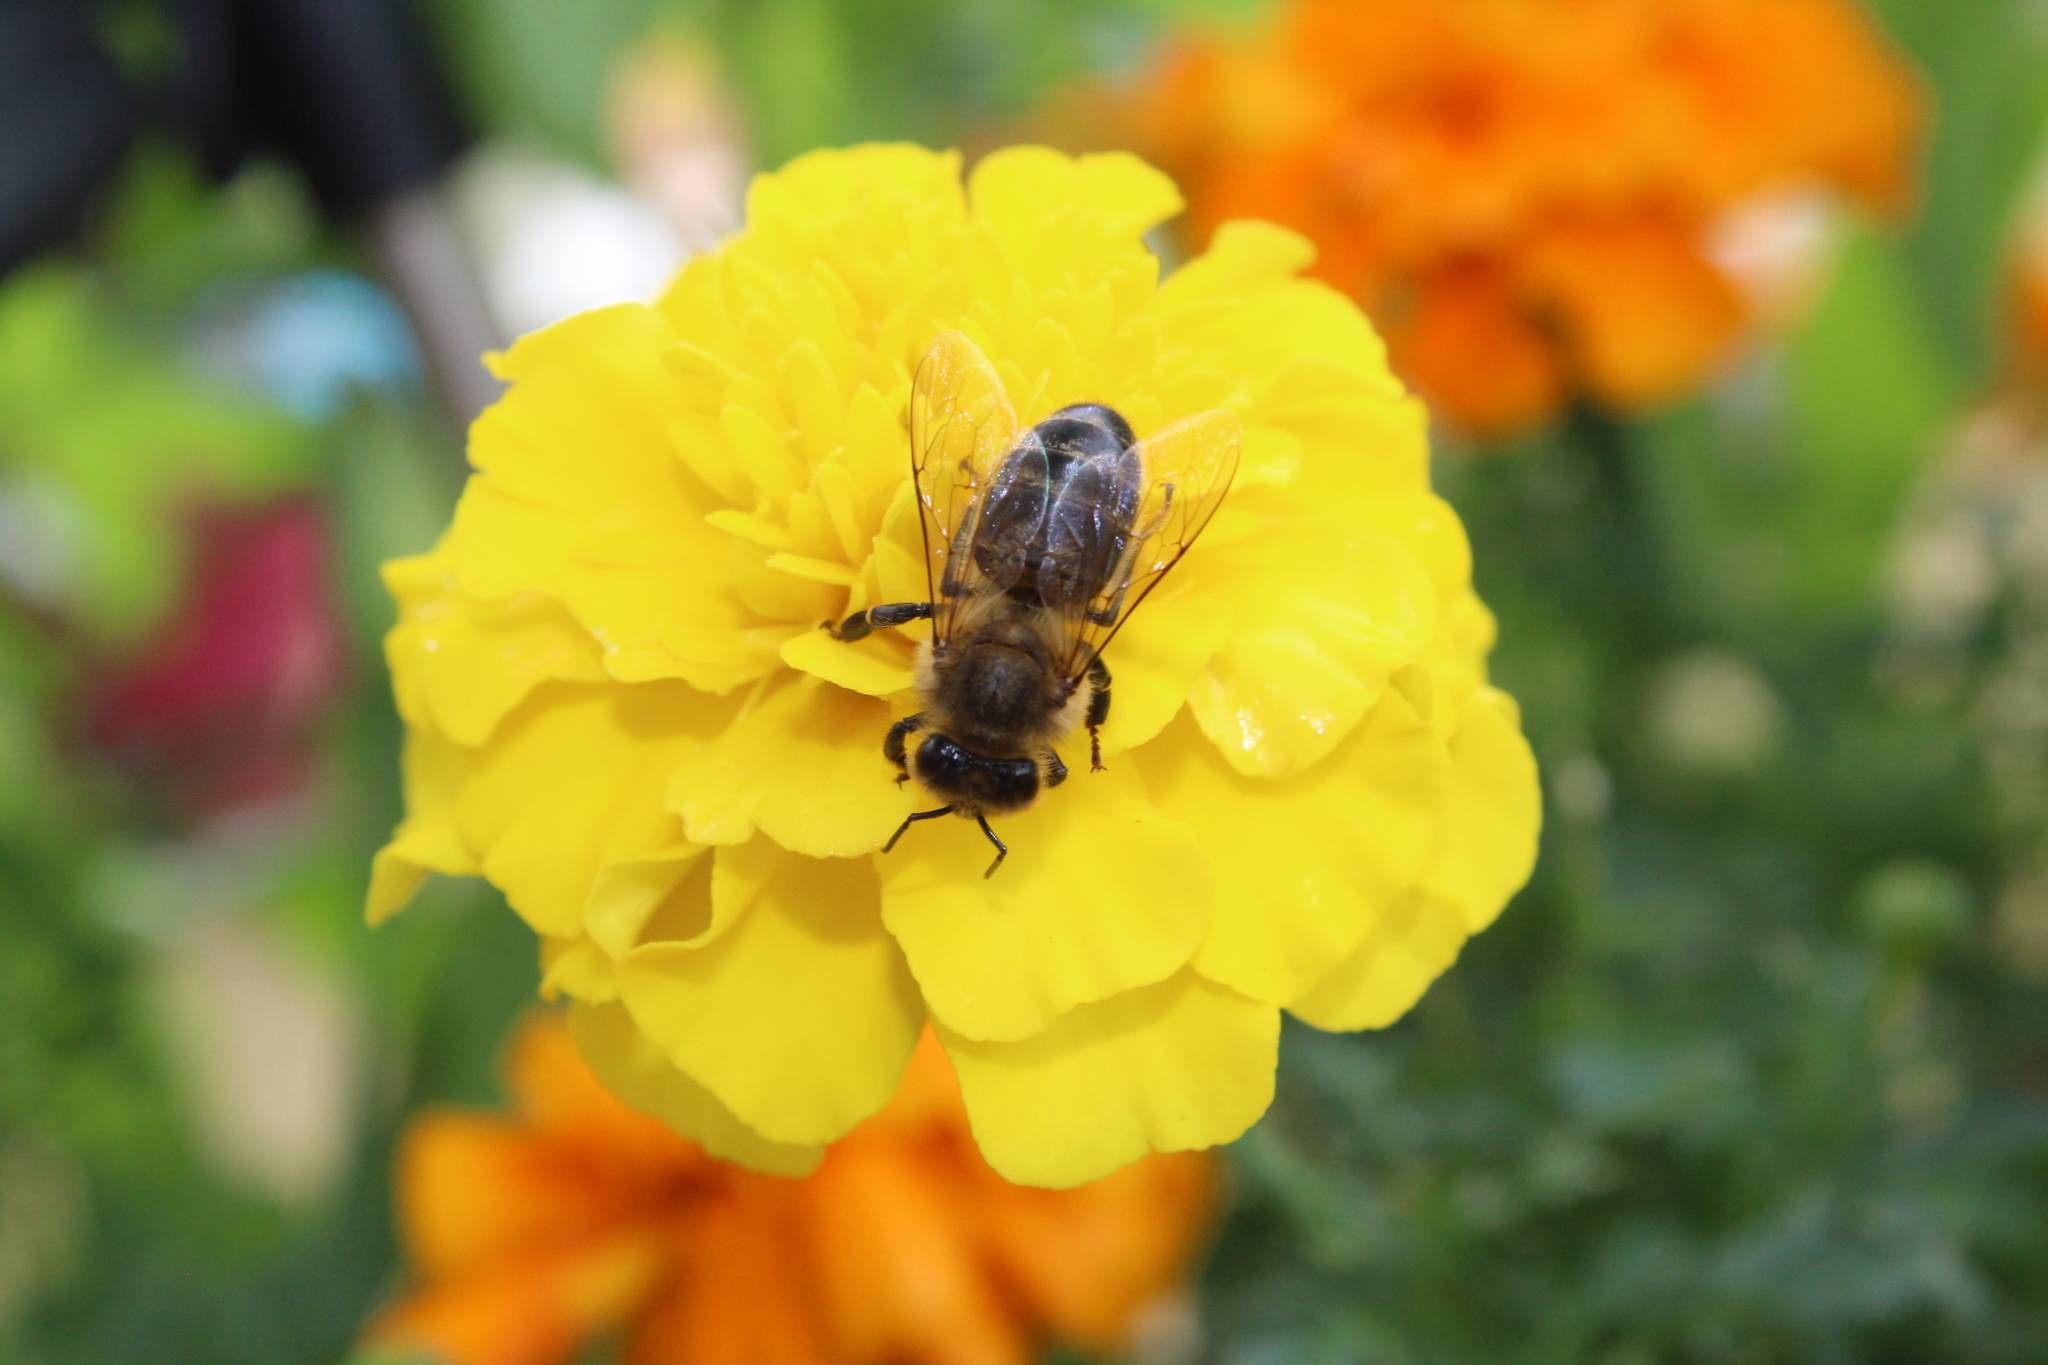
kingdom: Animalia
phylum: Arthropoda
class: Insecta
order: Hymenoptera
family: Apidae
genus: Apis
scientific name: Apis mellifera
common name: Honey bee
